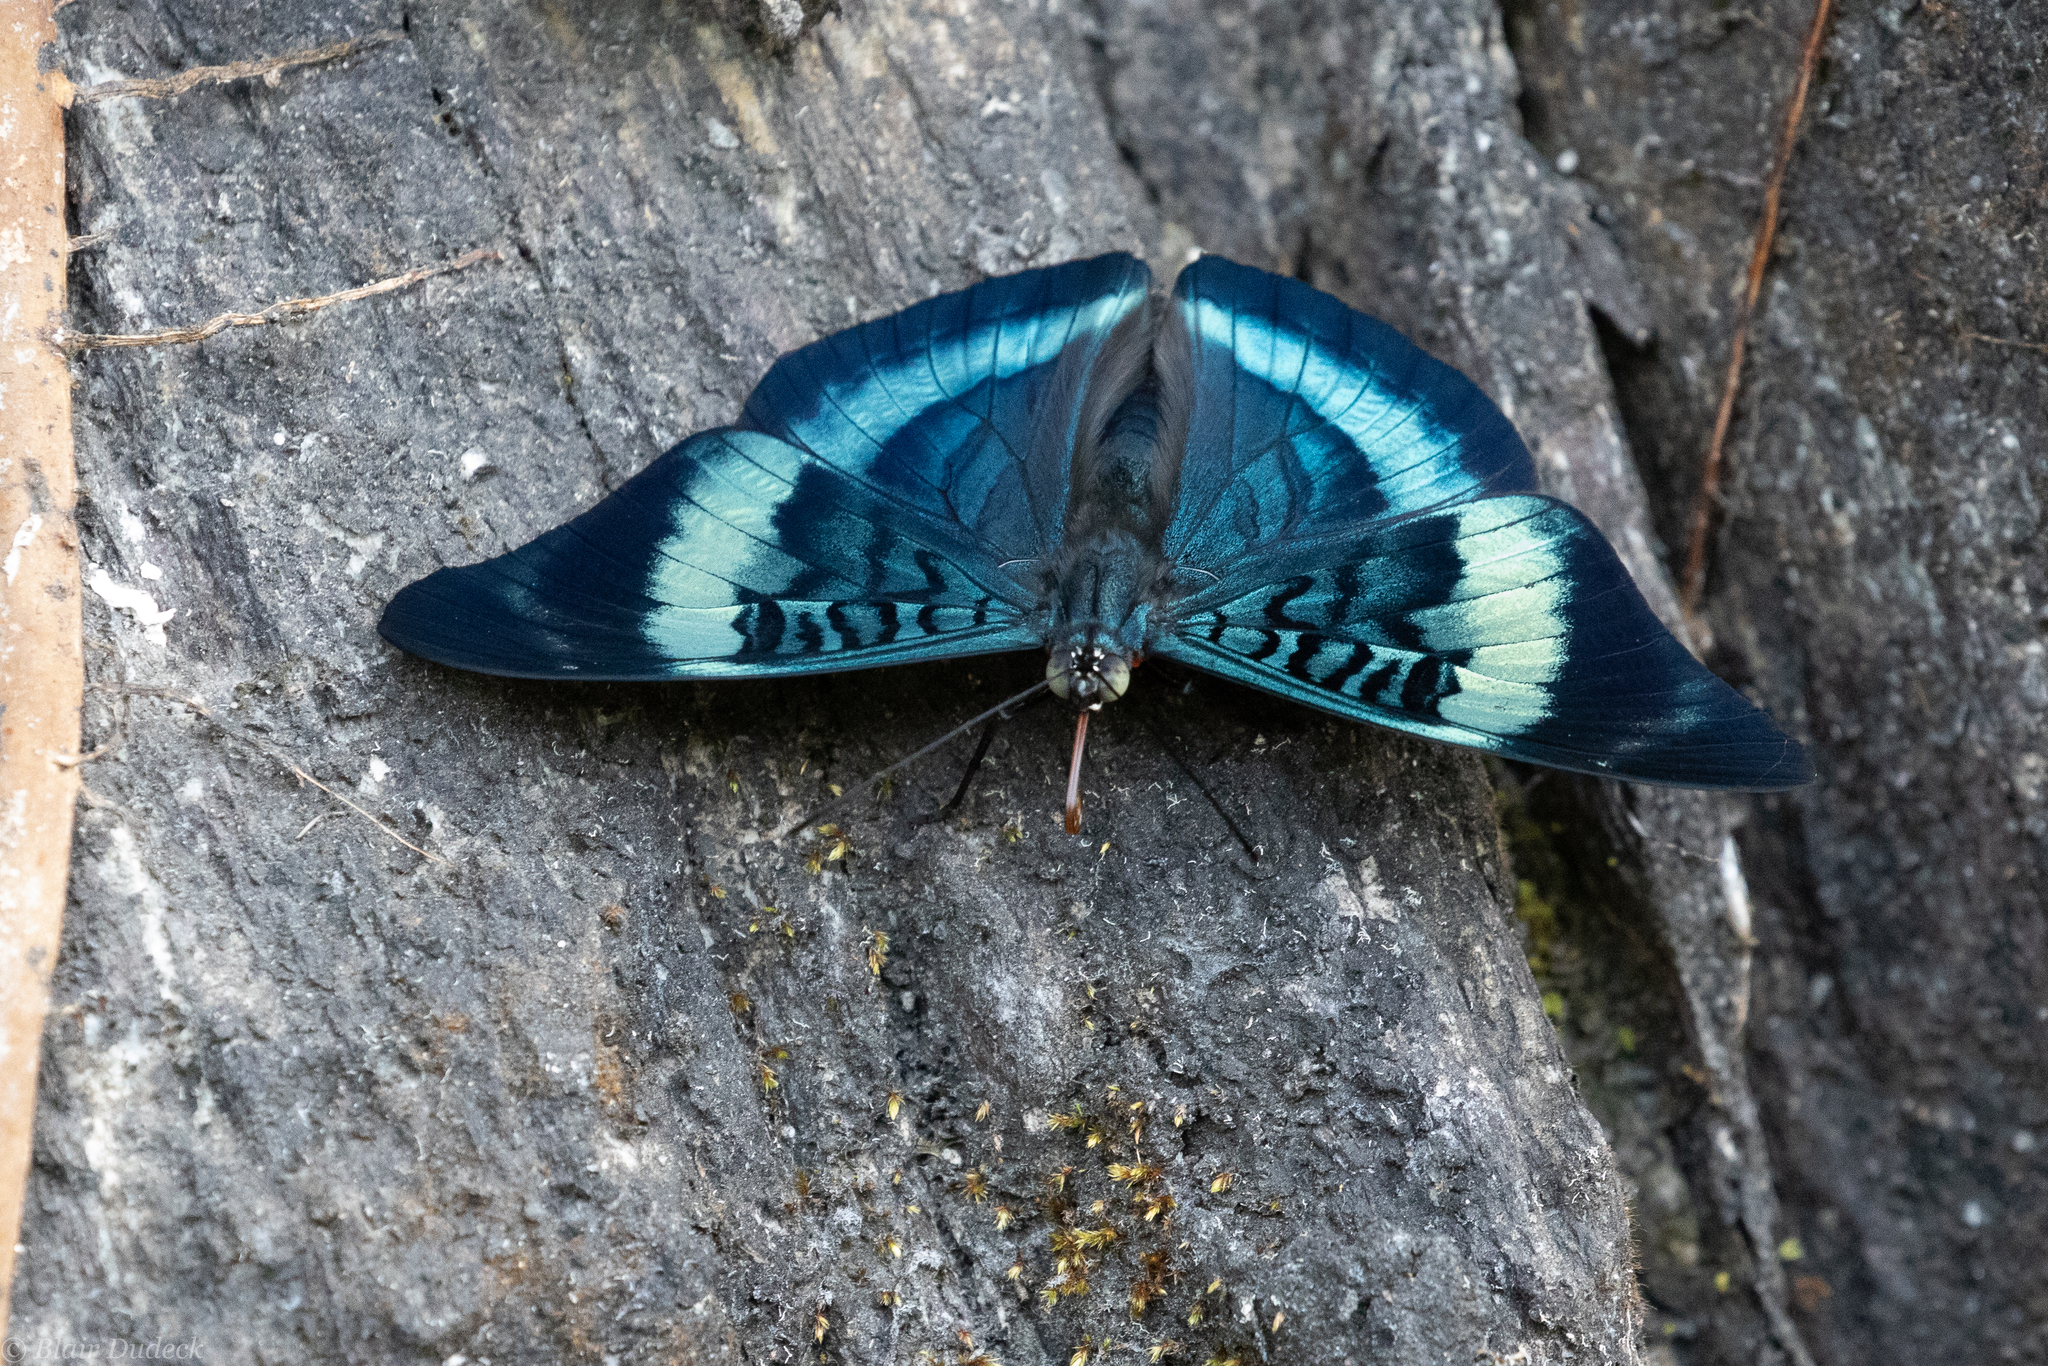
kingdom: Animalia
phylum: Arthropoda
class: Insecta
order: Lepidoptera
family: Nymphalidae
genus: Panacea
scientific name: Panacea procilla
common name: Procilla beauty
